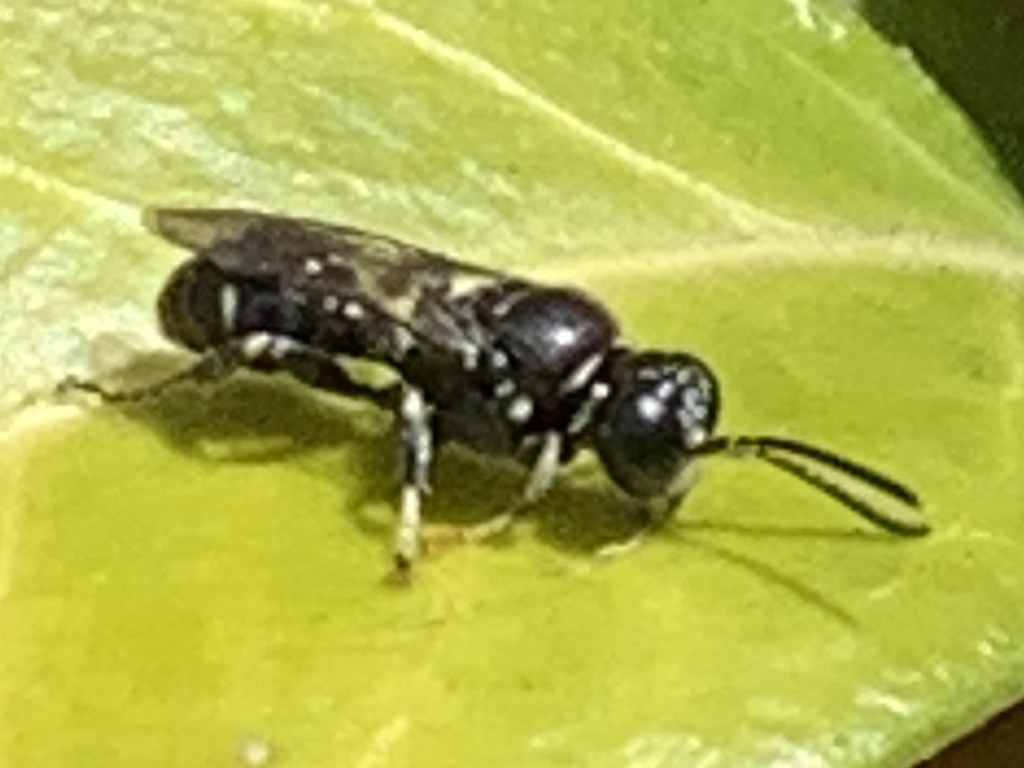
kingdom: Animalia
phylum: Arthropoda
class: Insecta
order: Hymenoptera
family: Crabronidae
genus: Clitemnestra
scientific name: Clitemnestra bipunctata
